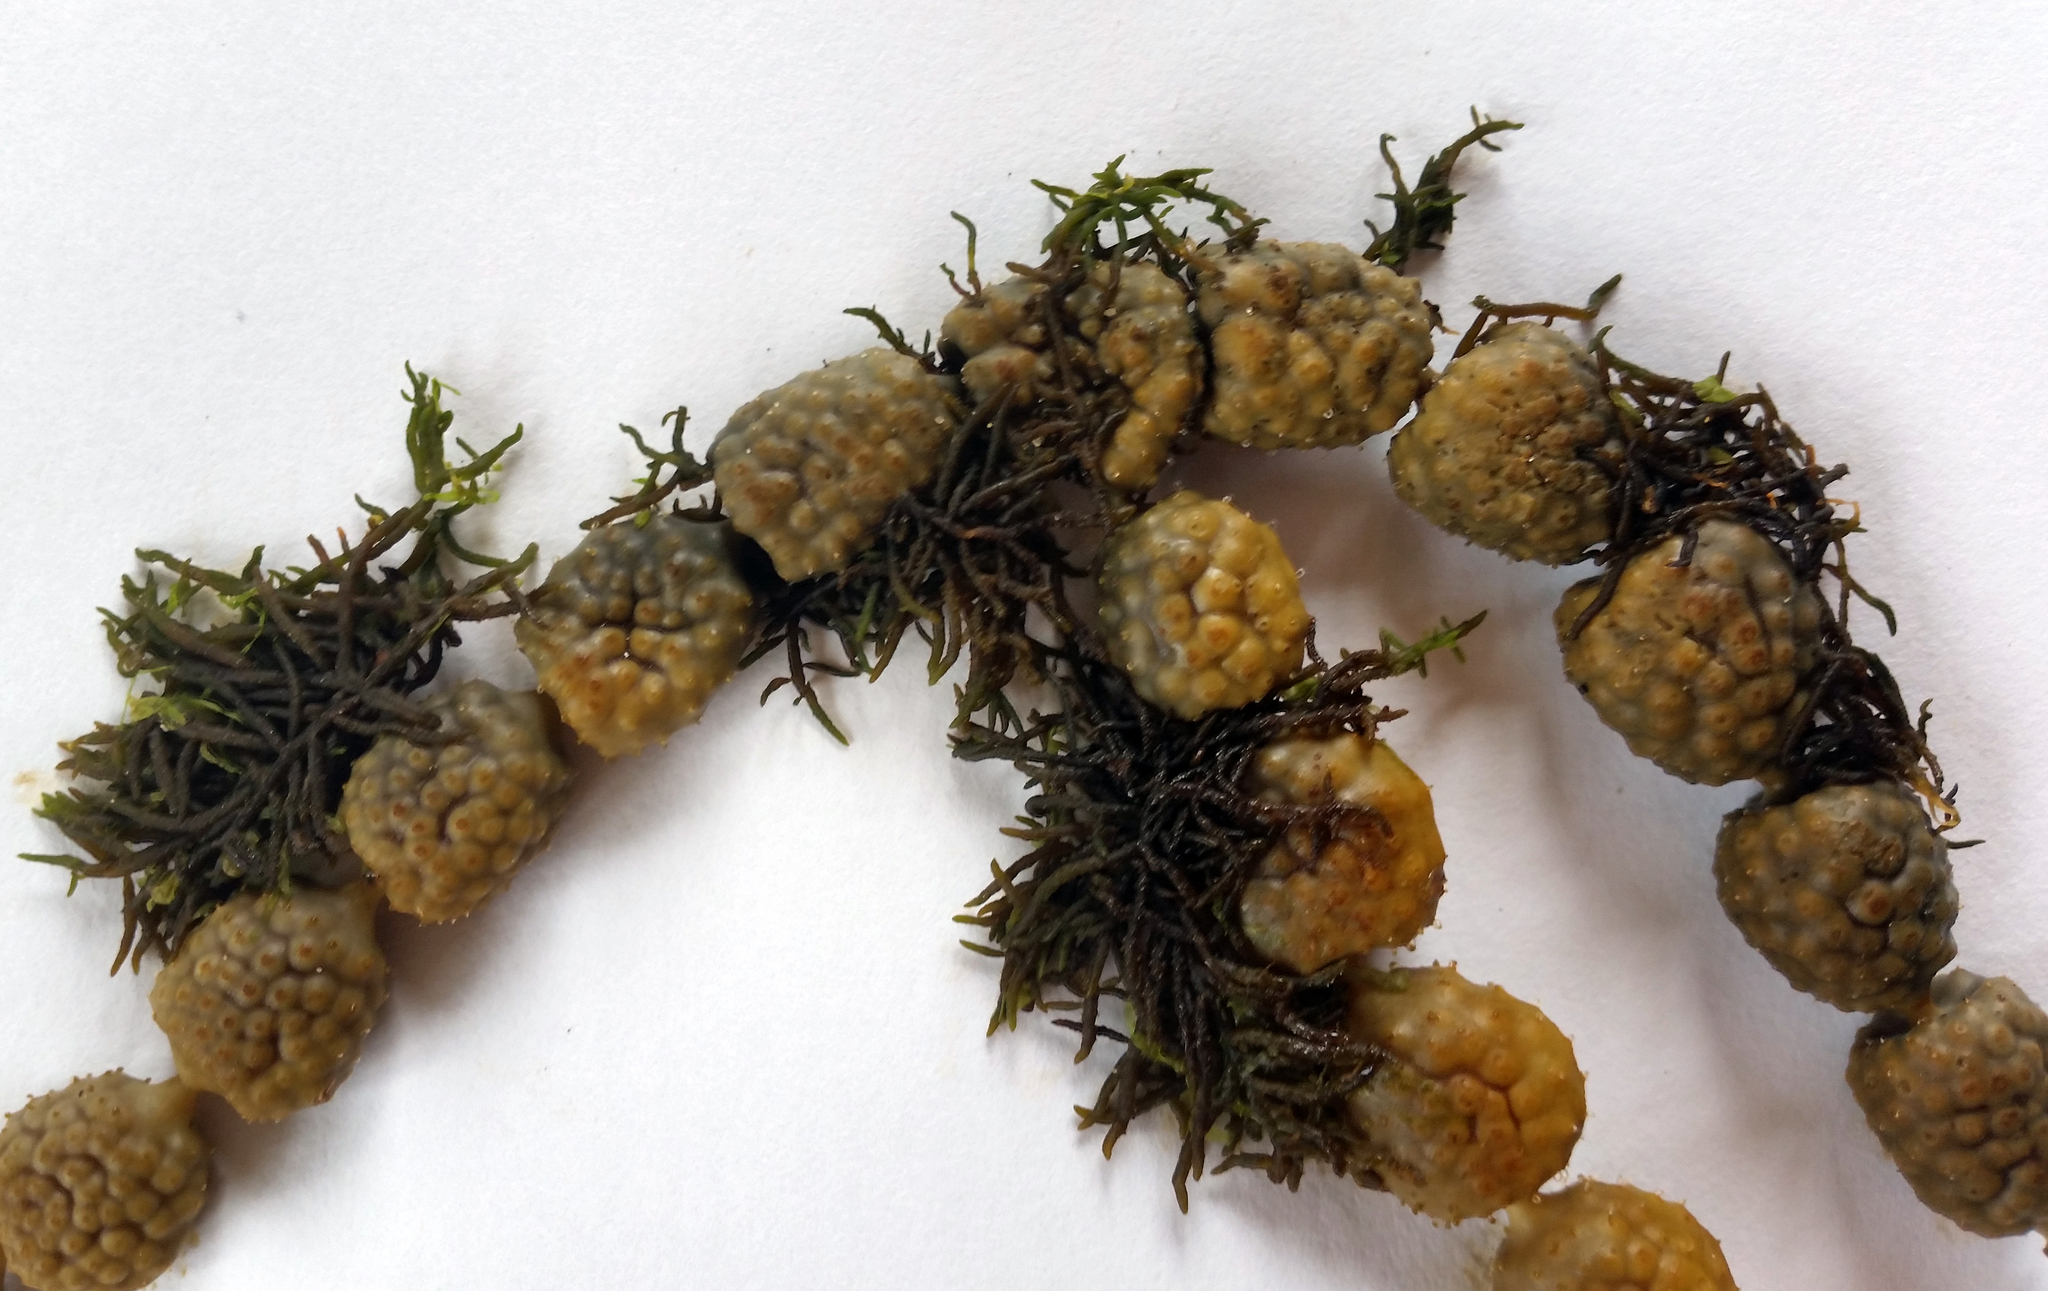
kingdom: Chromista
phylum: Ochrophyta
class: Phaeophyceae
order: Fucales
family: Notheiaceae
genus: Notheia
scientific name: Notheia anomala
